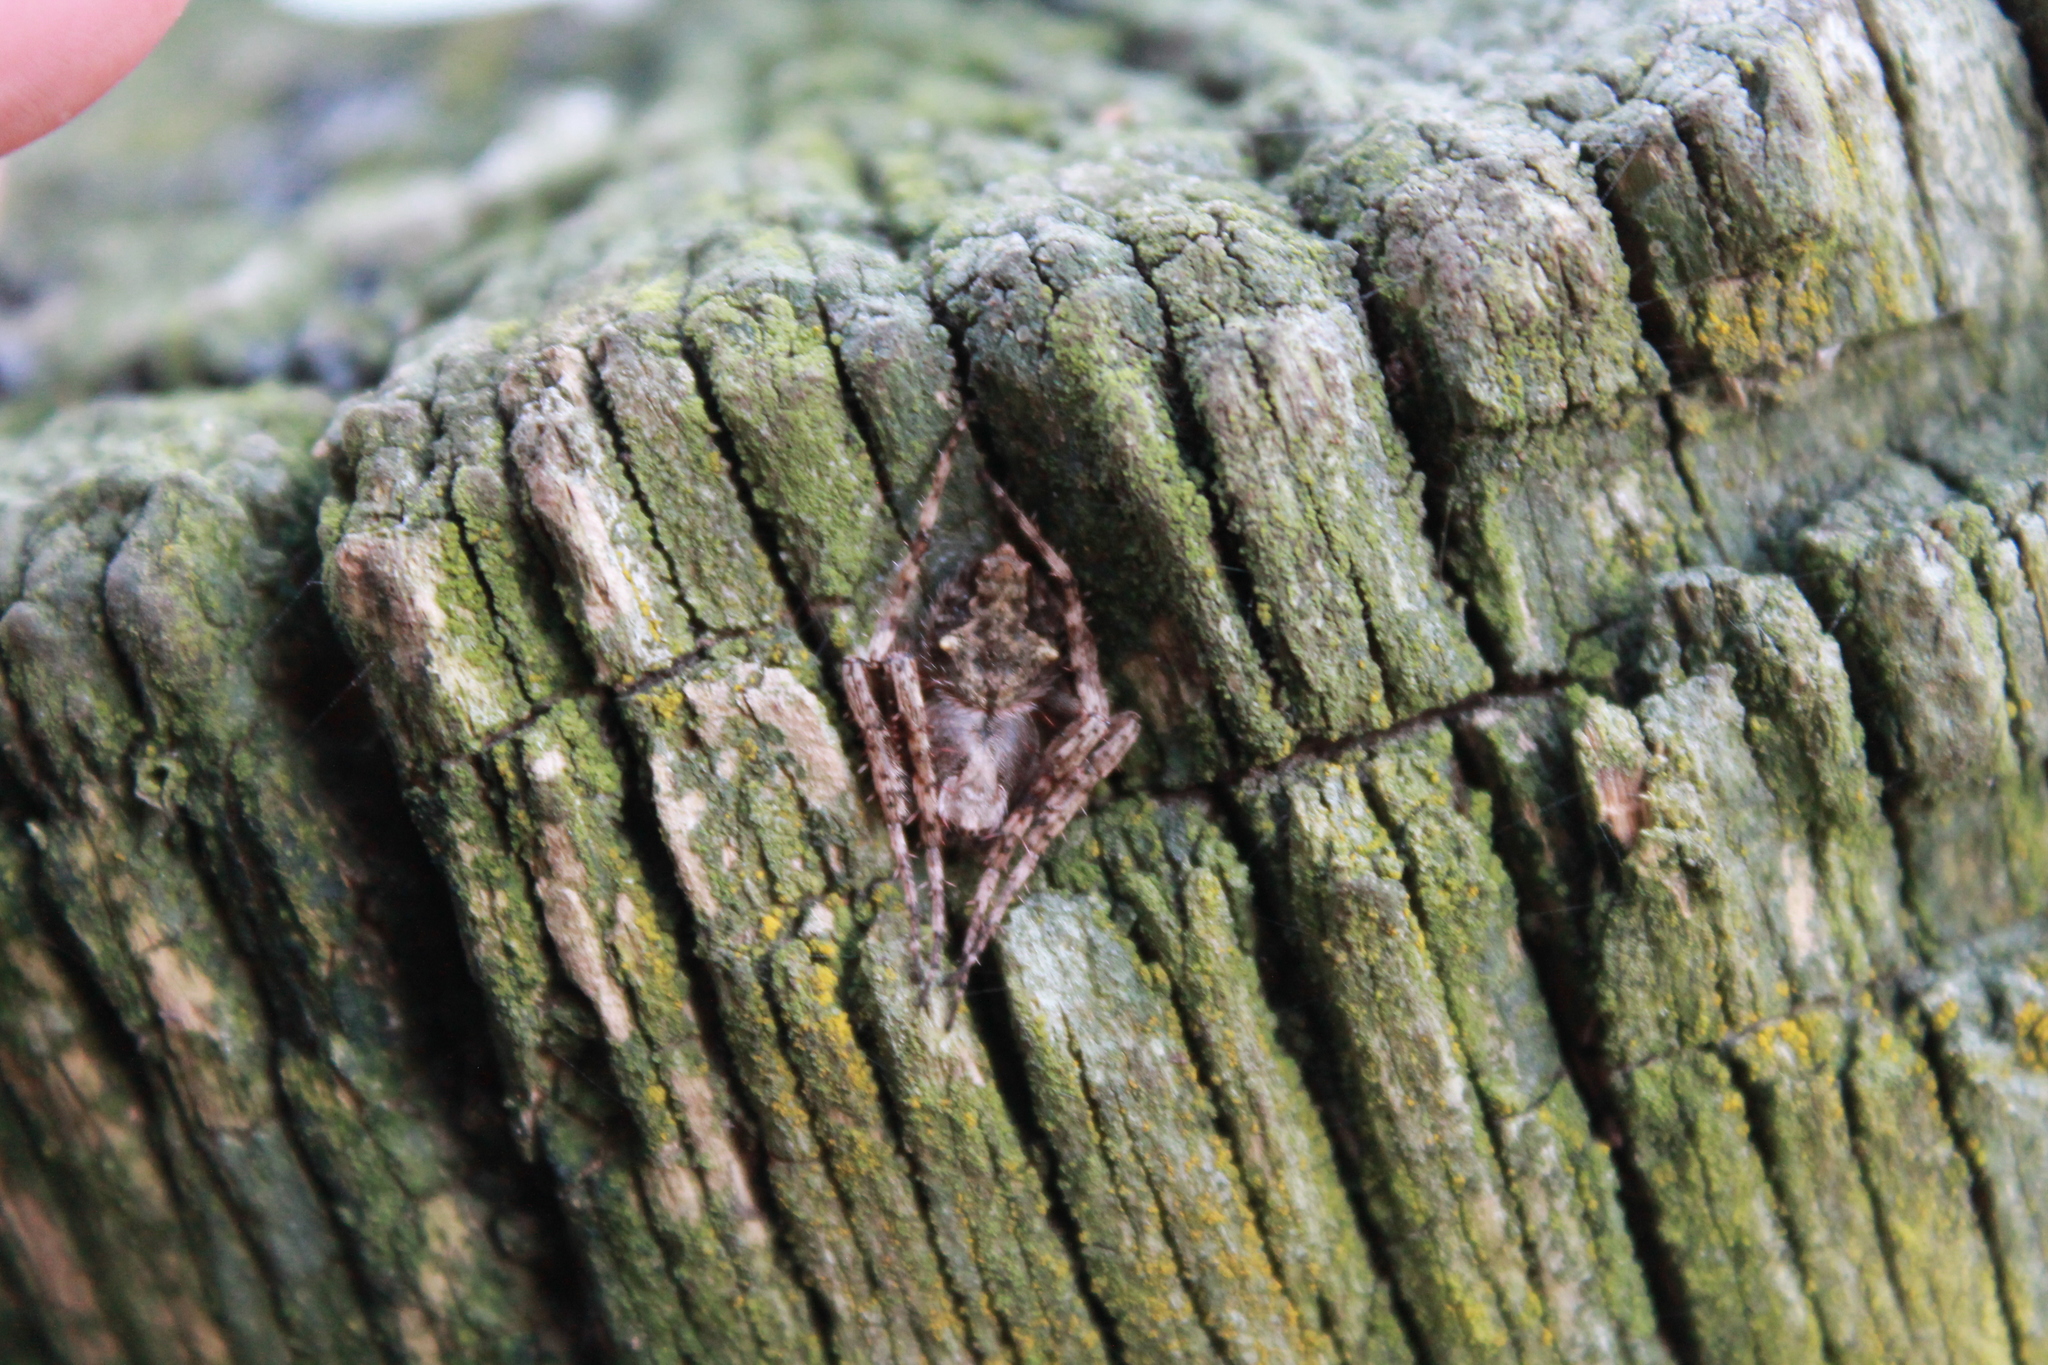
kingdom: Animalia
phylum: Arthropoda
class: Arachnida
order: Araneae
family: Araneidae
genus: Eriophora
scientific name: Eriophora pustulosa
